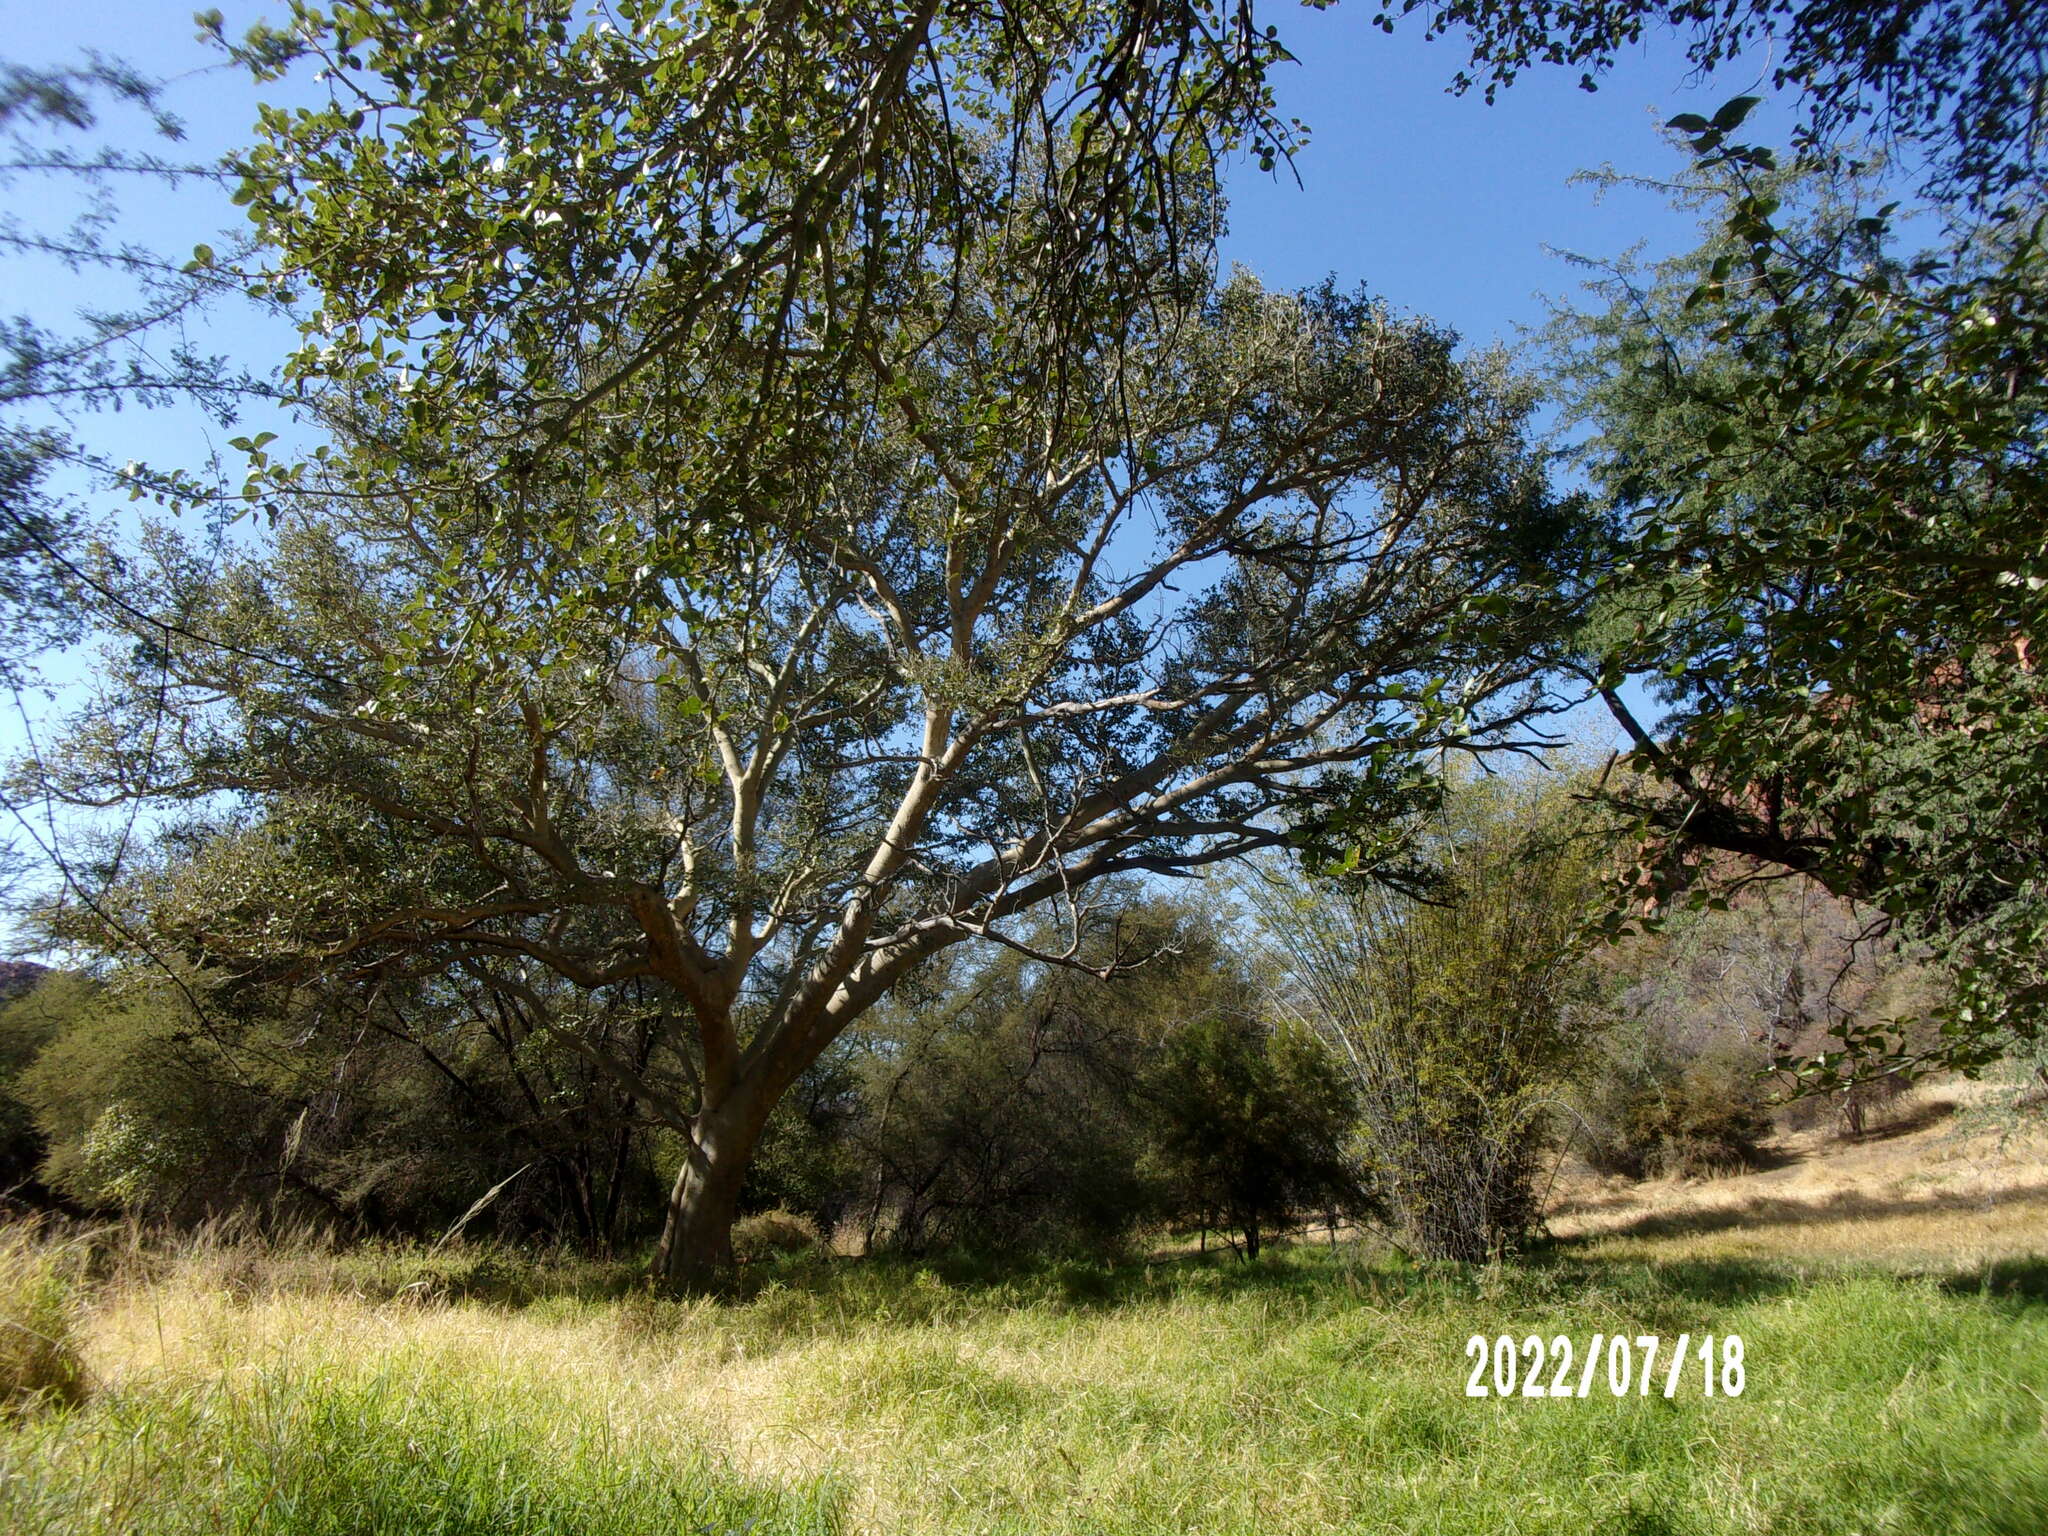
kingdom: Plantae
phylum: Tracheophyta
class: Magnoliopsida
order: Rosales
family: Moraceae
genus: Ficus
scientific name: Ficus sycomorus
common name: Sycomore
